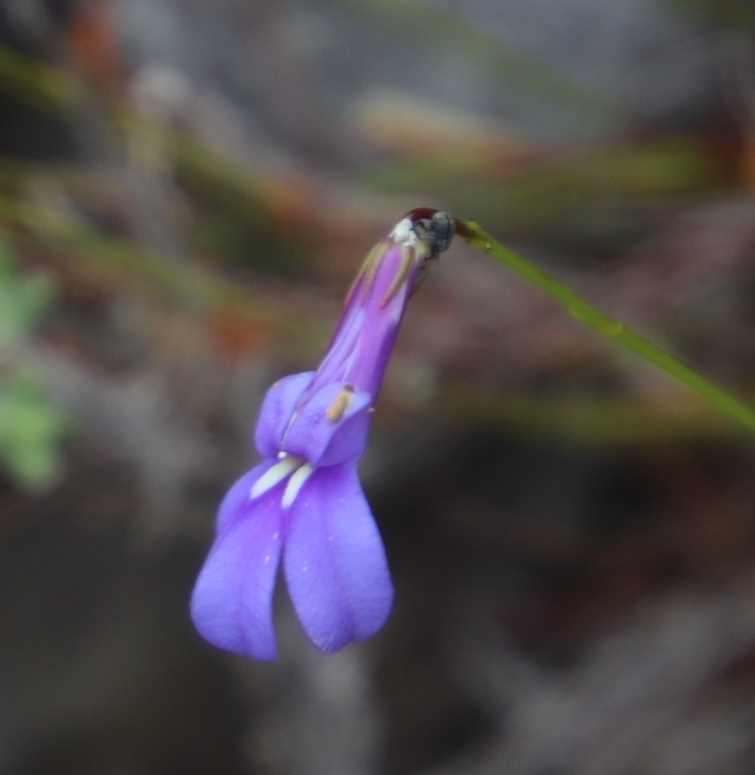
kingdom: Plantae
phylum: Tracheophyta
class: Magnoliopsida
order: Asterales
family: Campanulaceae
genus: Lobelia
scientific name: Lobelia coronopifolia
